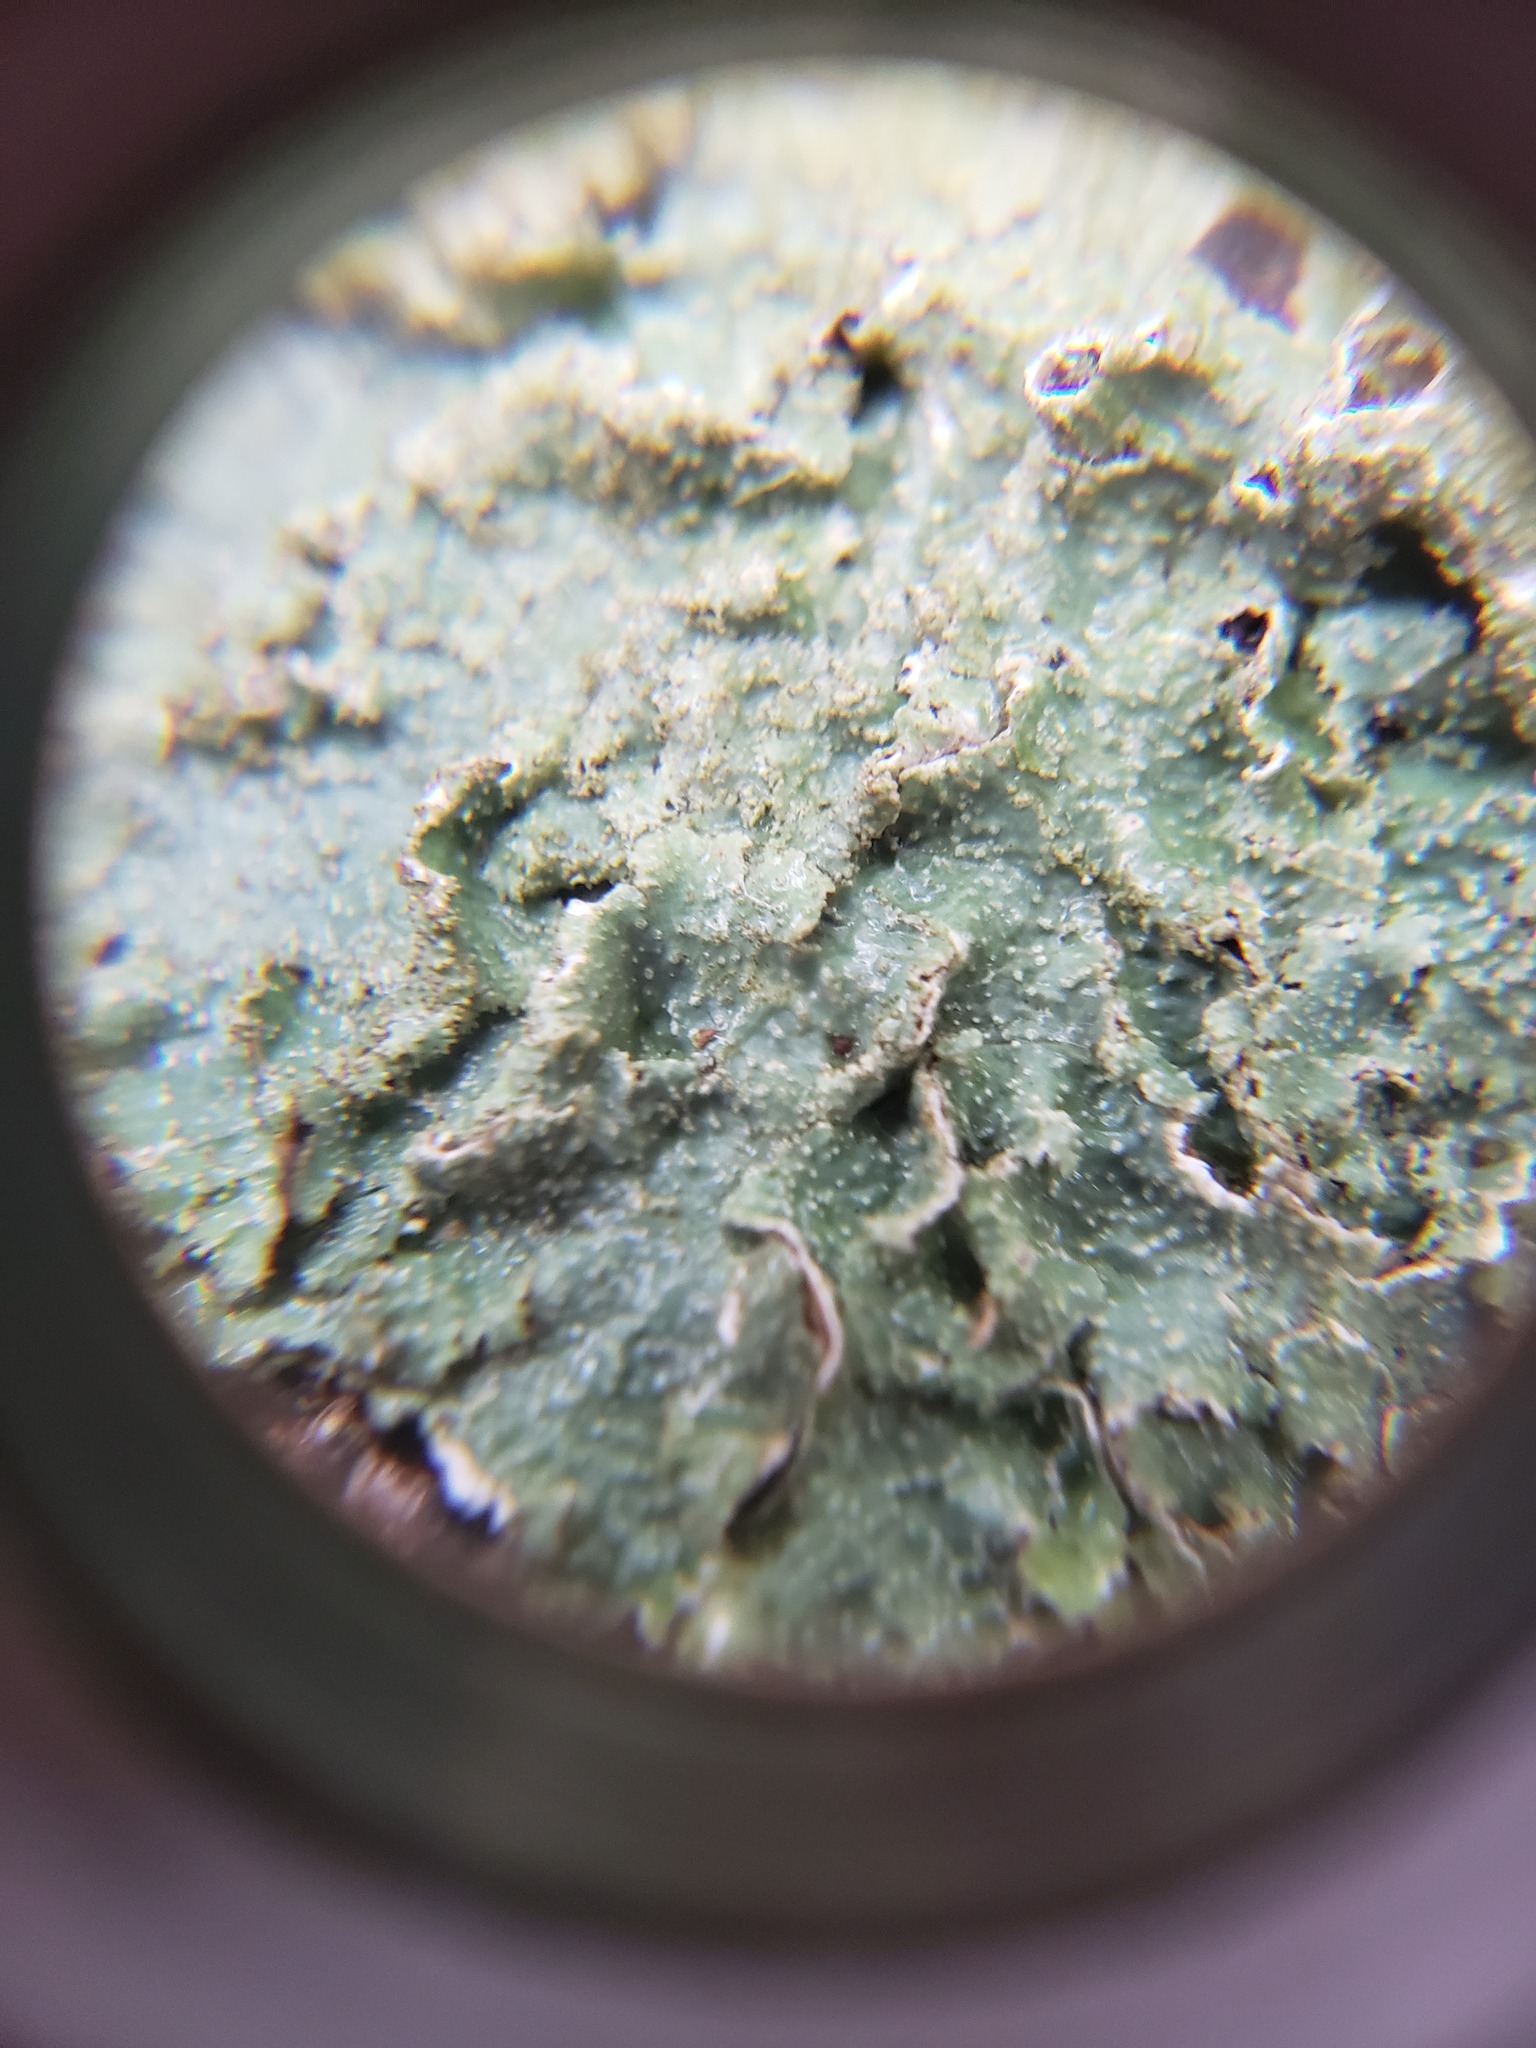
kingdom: Fungi
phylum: Ascomycota
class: Lecanoromycetes
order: Lecanorales
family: Parmeliaceae
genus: Punctelia
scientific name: Punctelia rudecta
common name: Rough speckled shield lichen
